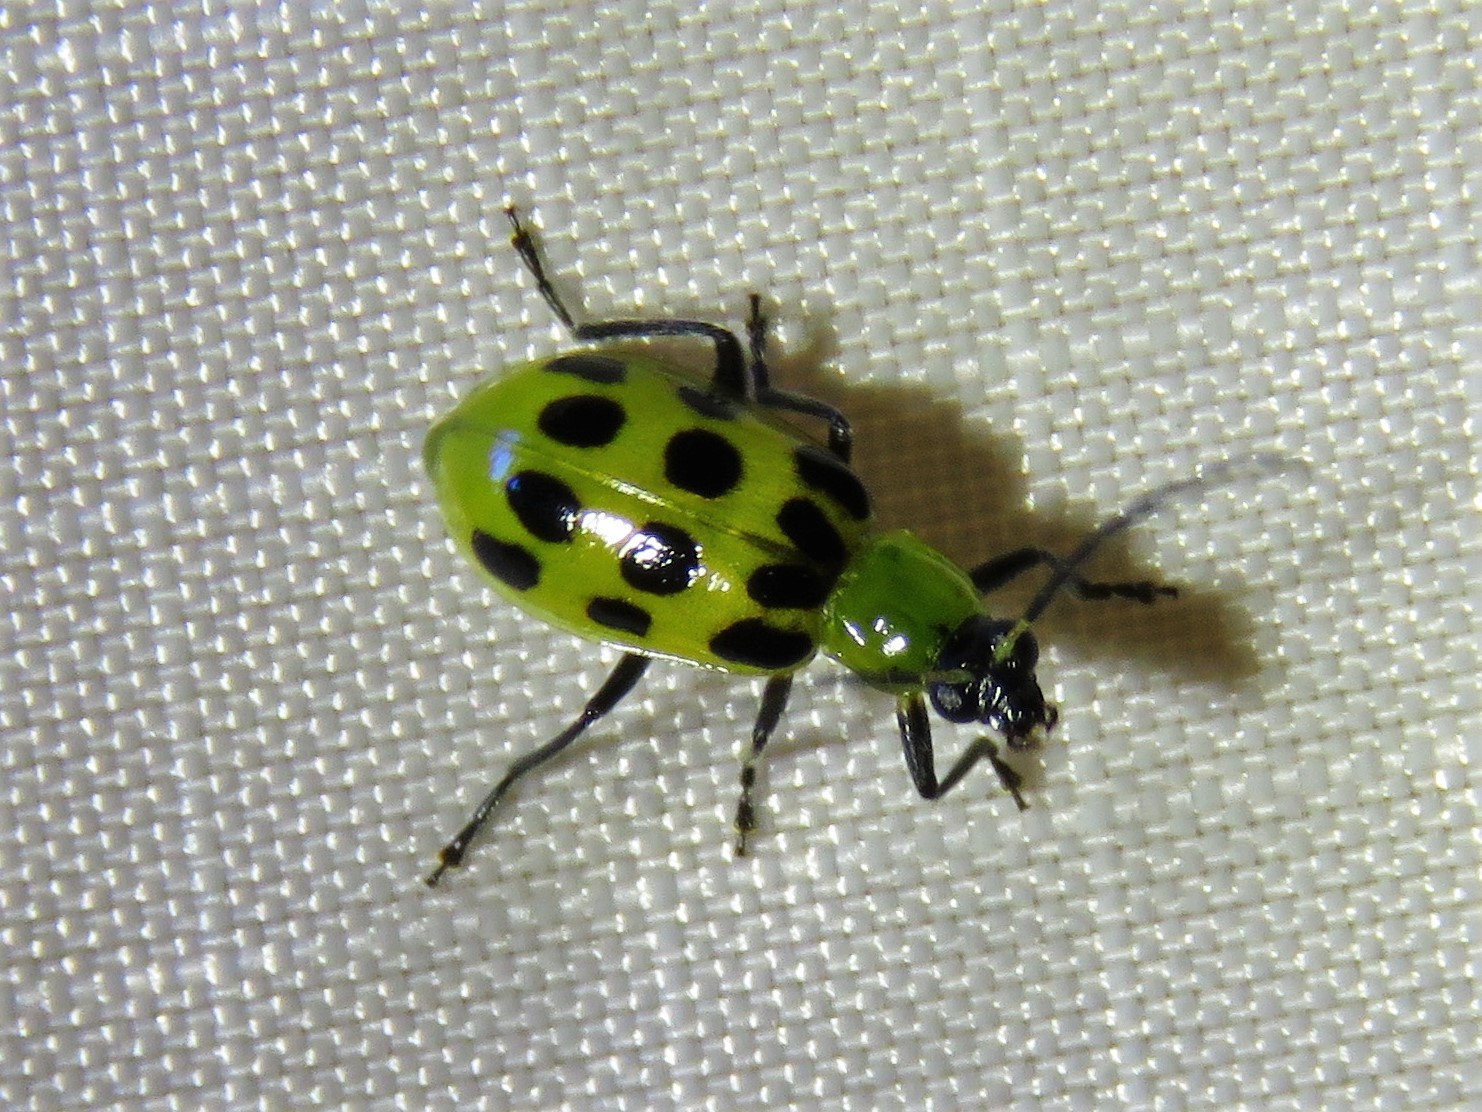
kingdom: Animalia
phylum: Arthropoda
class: Insecta
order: Coleoptera
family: Chrysomelidae
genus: Diabrotica
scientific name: Diabrotica undecimpunctata
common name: Spotted cucumber beetle
